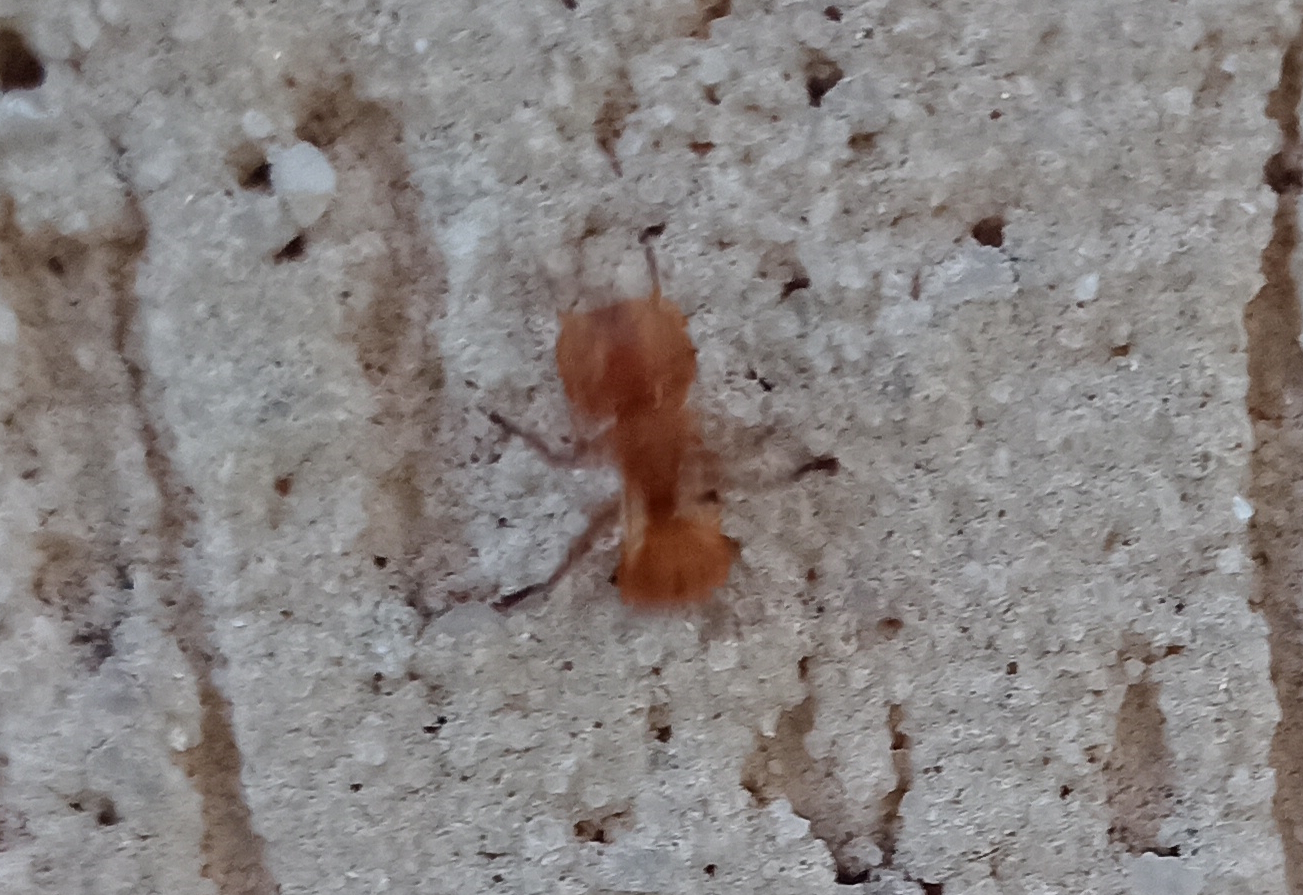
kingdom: Animalia
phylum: Arthropoda
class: Insecta
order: Hymenoptera
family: Formicidae
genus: Cephalotes
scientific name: Cephalotes clypeatus
